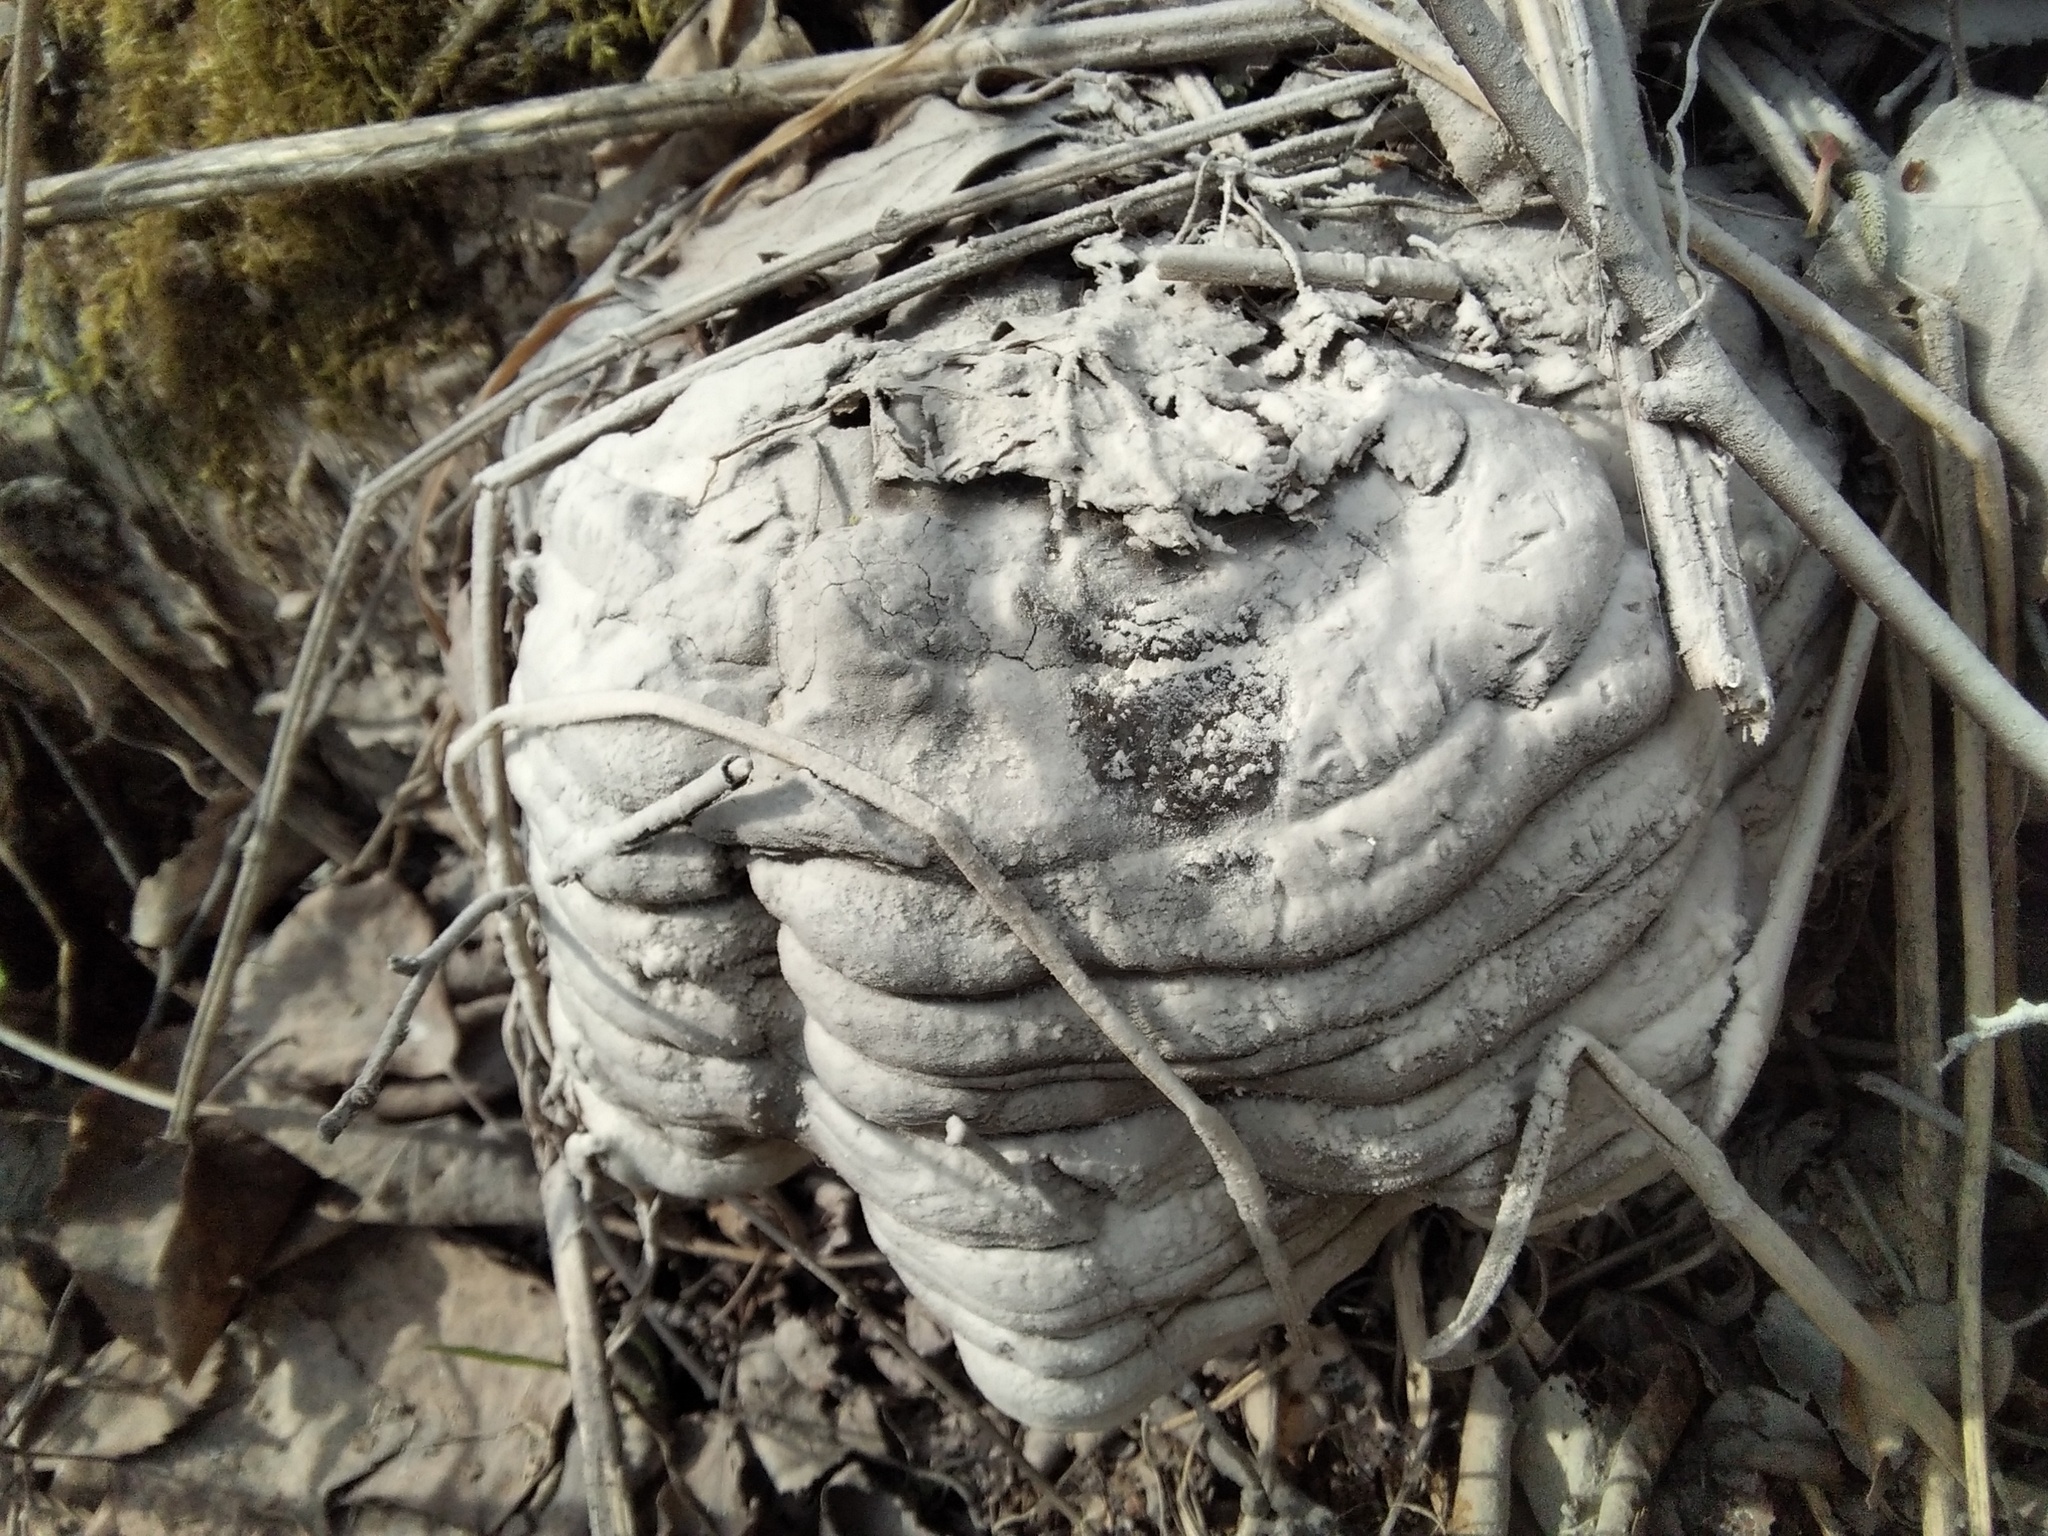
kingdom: Fungi
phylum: Basidiomycota
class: Agaricomycetes
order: Polyporales
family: Polyporaceae
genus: Fomes
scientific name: Fomes fomentarius
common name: Hoof fungus
